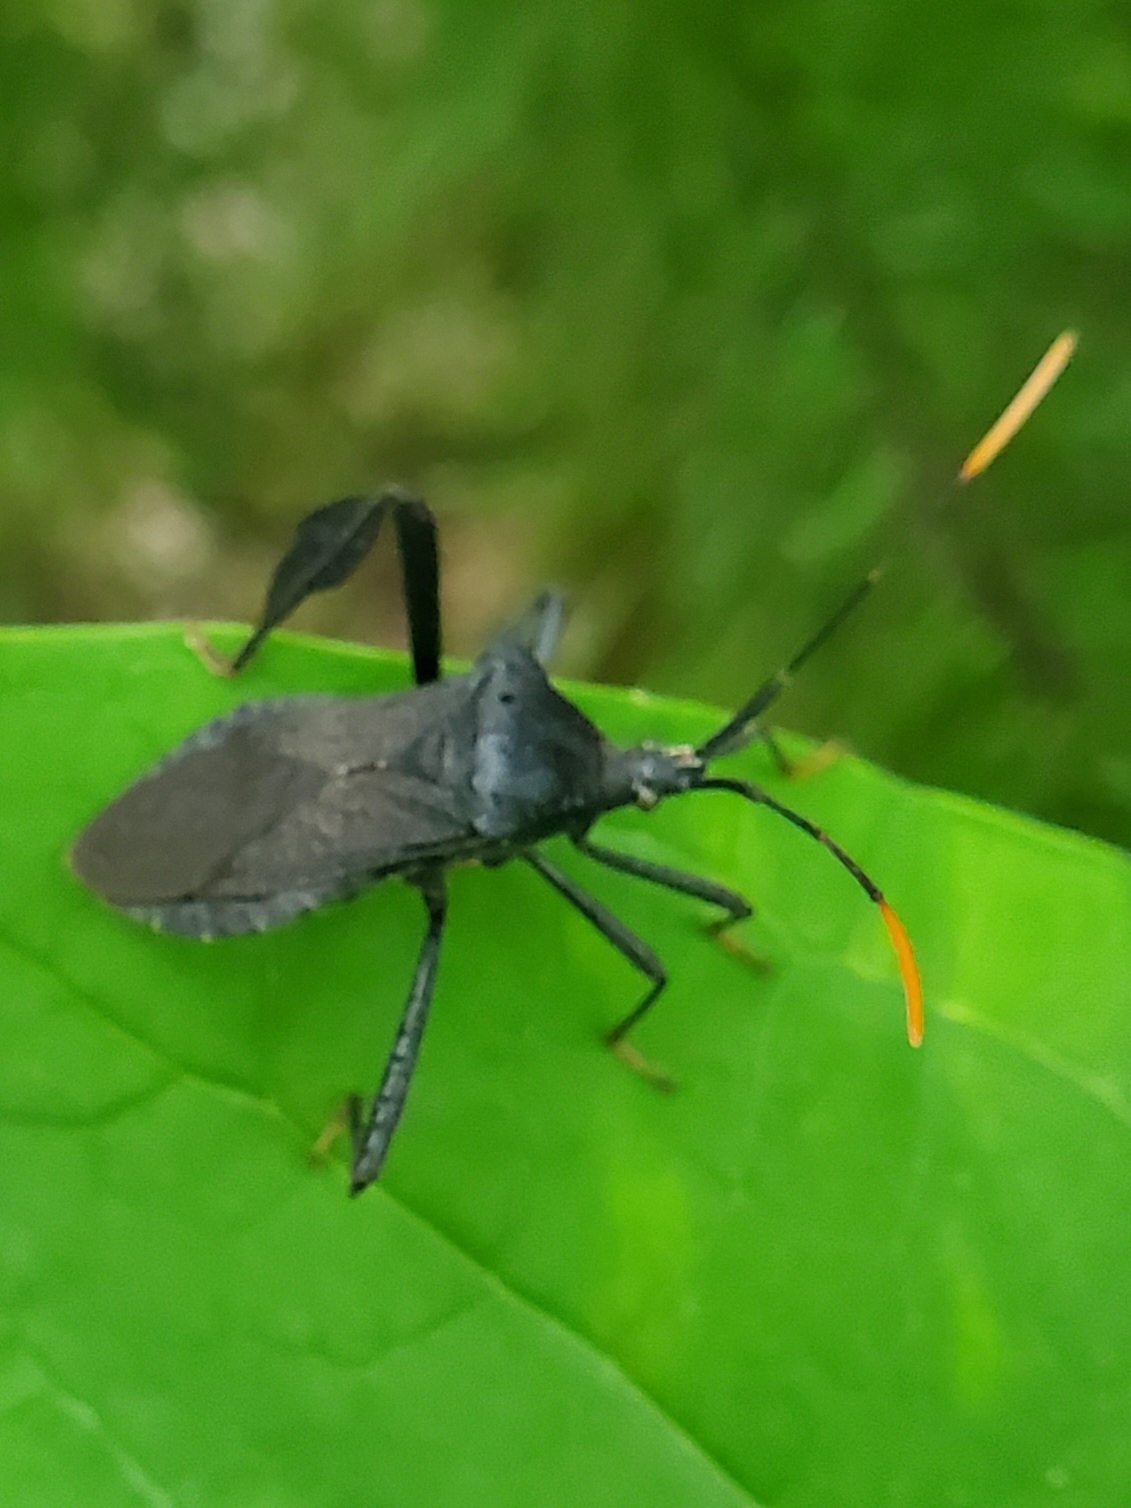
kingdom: Animalia
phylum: Arthropoda
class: Insecta
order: Hemiptera
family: Coreidae
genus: Acanthocephala
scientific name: Acanthocephala terminalis
